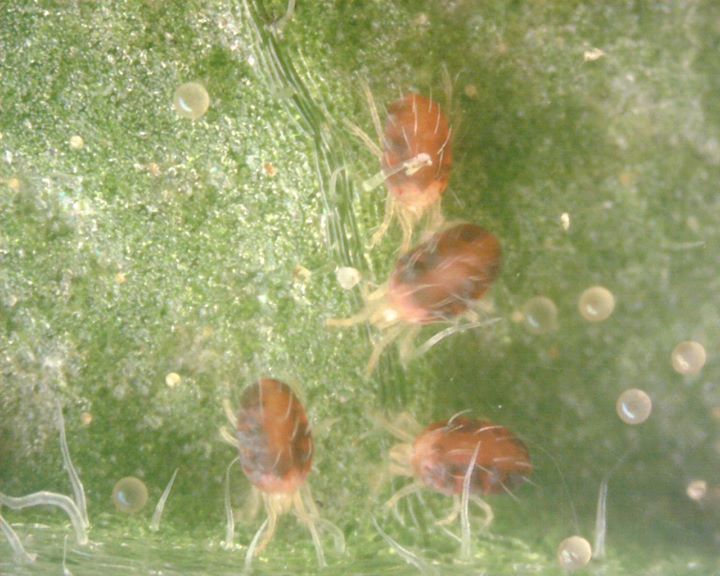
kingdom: Animalia
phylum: Arthropoda
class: Arachnida
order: Trombidiformes
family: Tetranychidae
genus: Tetranychus
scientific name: Tetranychus urticae
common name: Carmine spider mite
